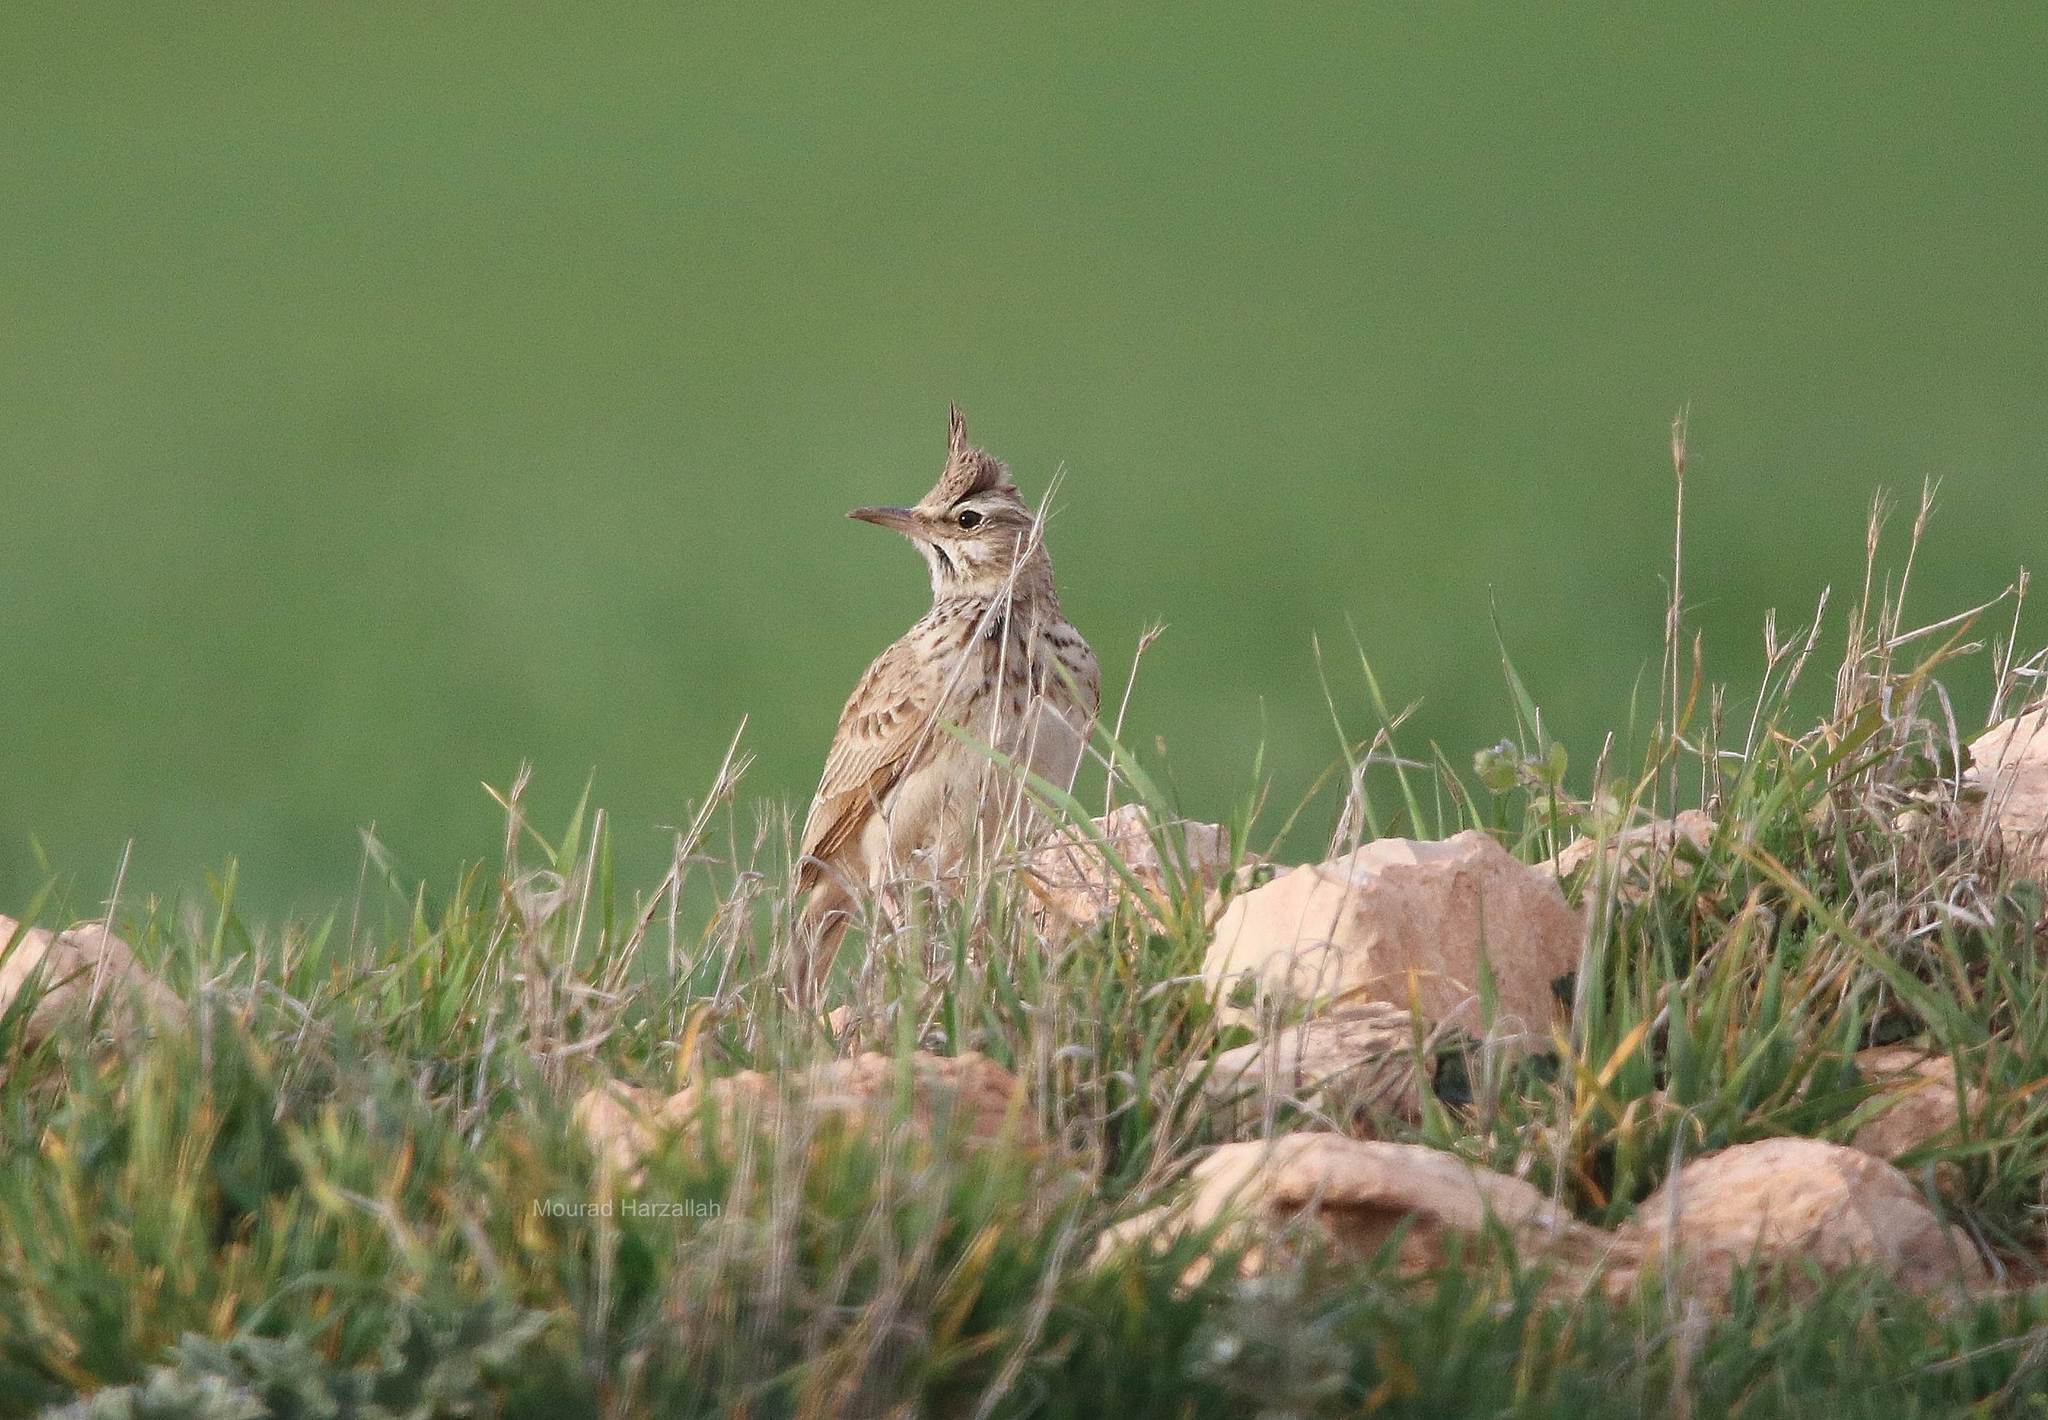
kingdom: Animalia
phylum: Chordata
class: Aves
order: Passeriformes
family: Alaudidae
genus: Galerida
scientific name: Galerida cristata
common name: Crested lark
